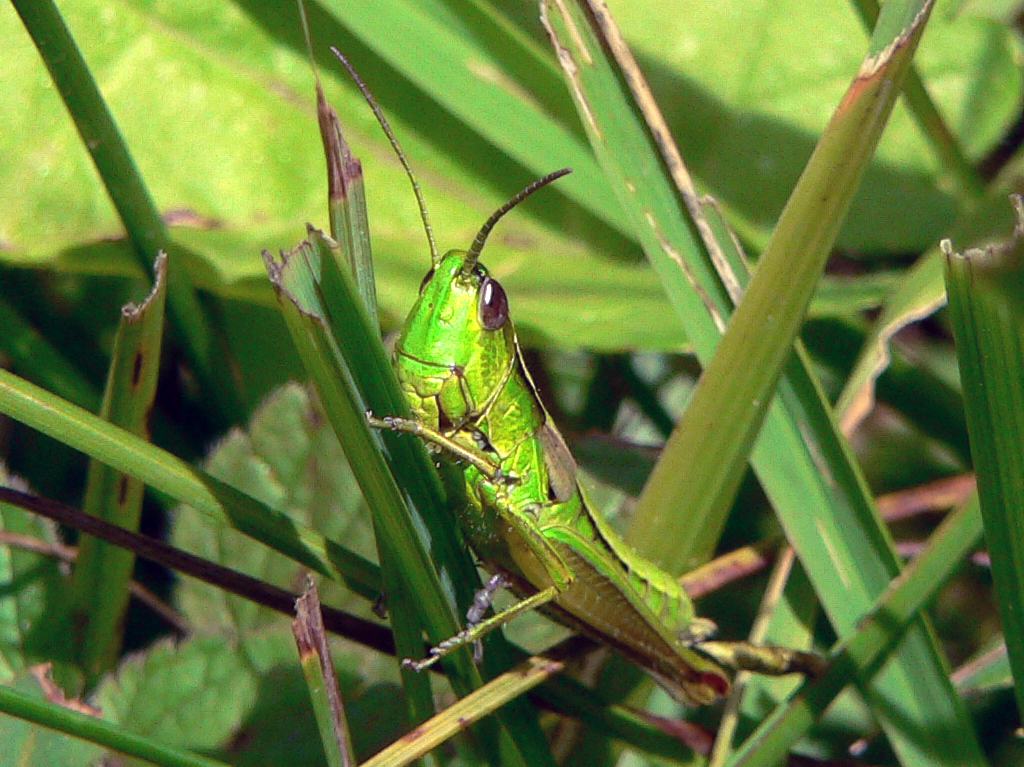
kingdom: Animalia
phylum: Arthropoda
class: Insecta
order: Orthoptera
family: Acrididae
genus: Euthystira
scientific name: Euthystira brachyptera
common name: Small gold grasshopper
